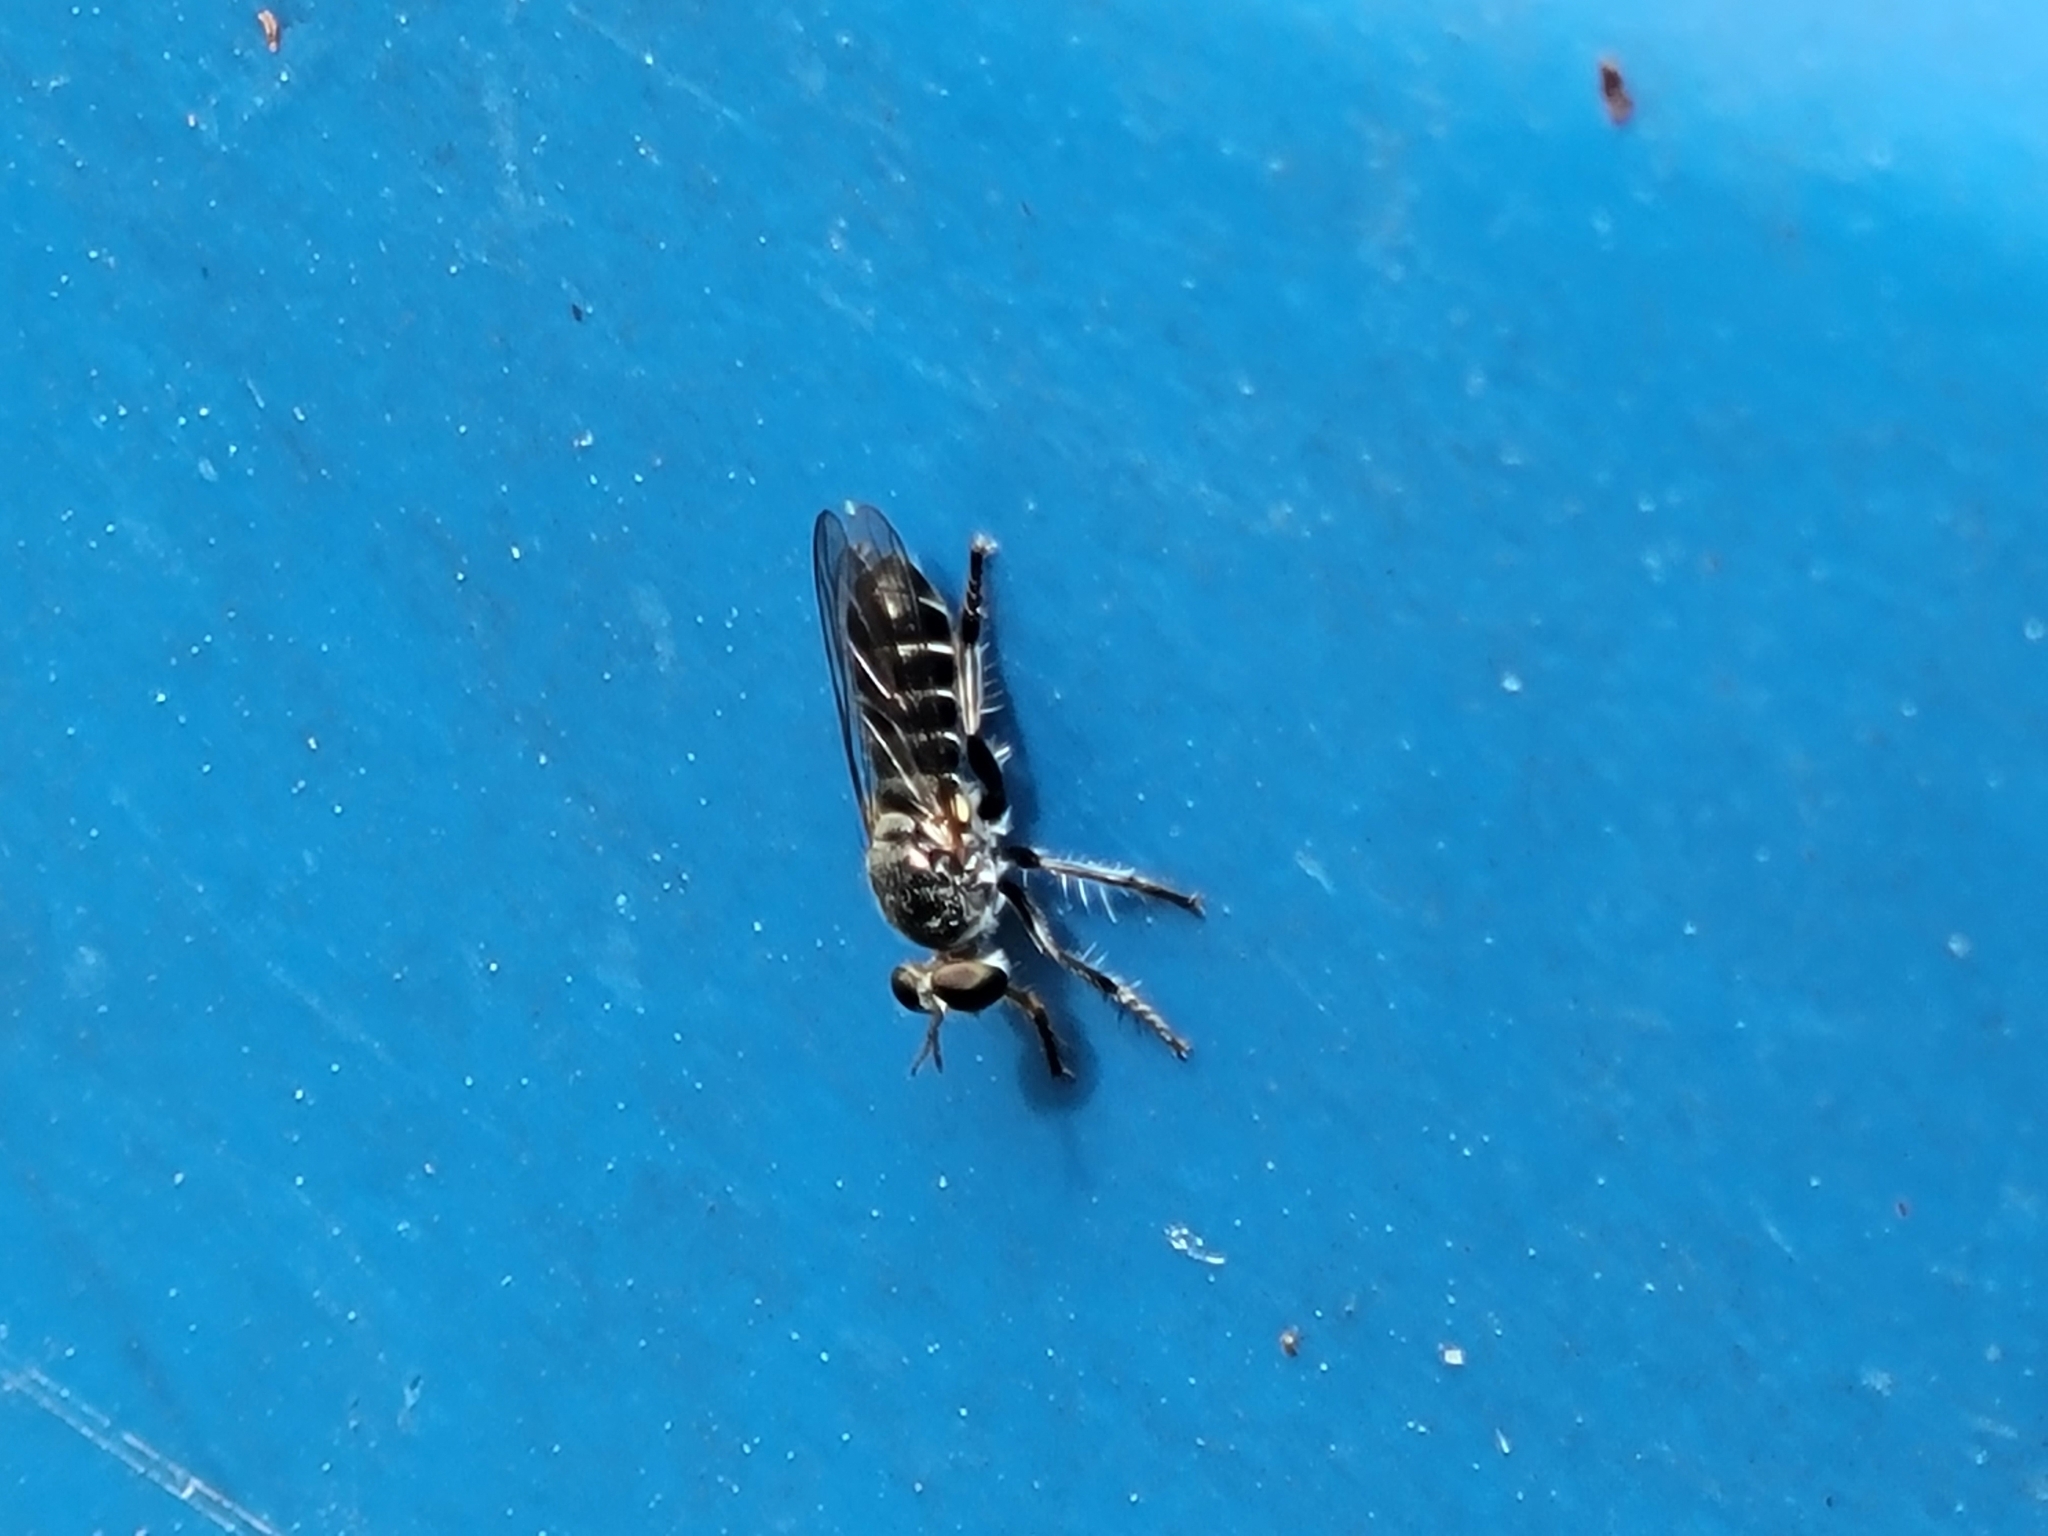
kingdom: Animalia
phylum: Arthropoda
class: Insecta
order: Diptera
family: Asilidae
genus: Atomosia
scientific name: Atomosia puella
